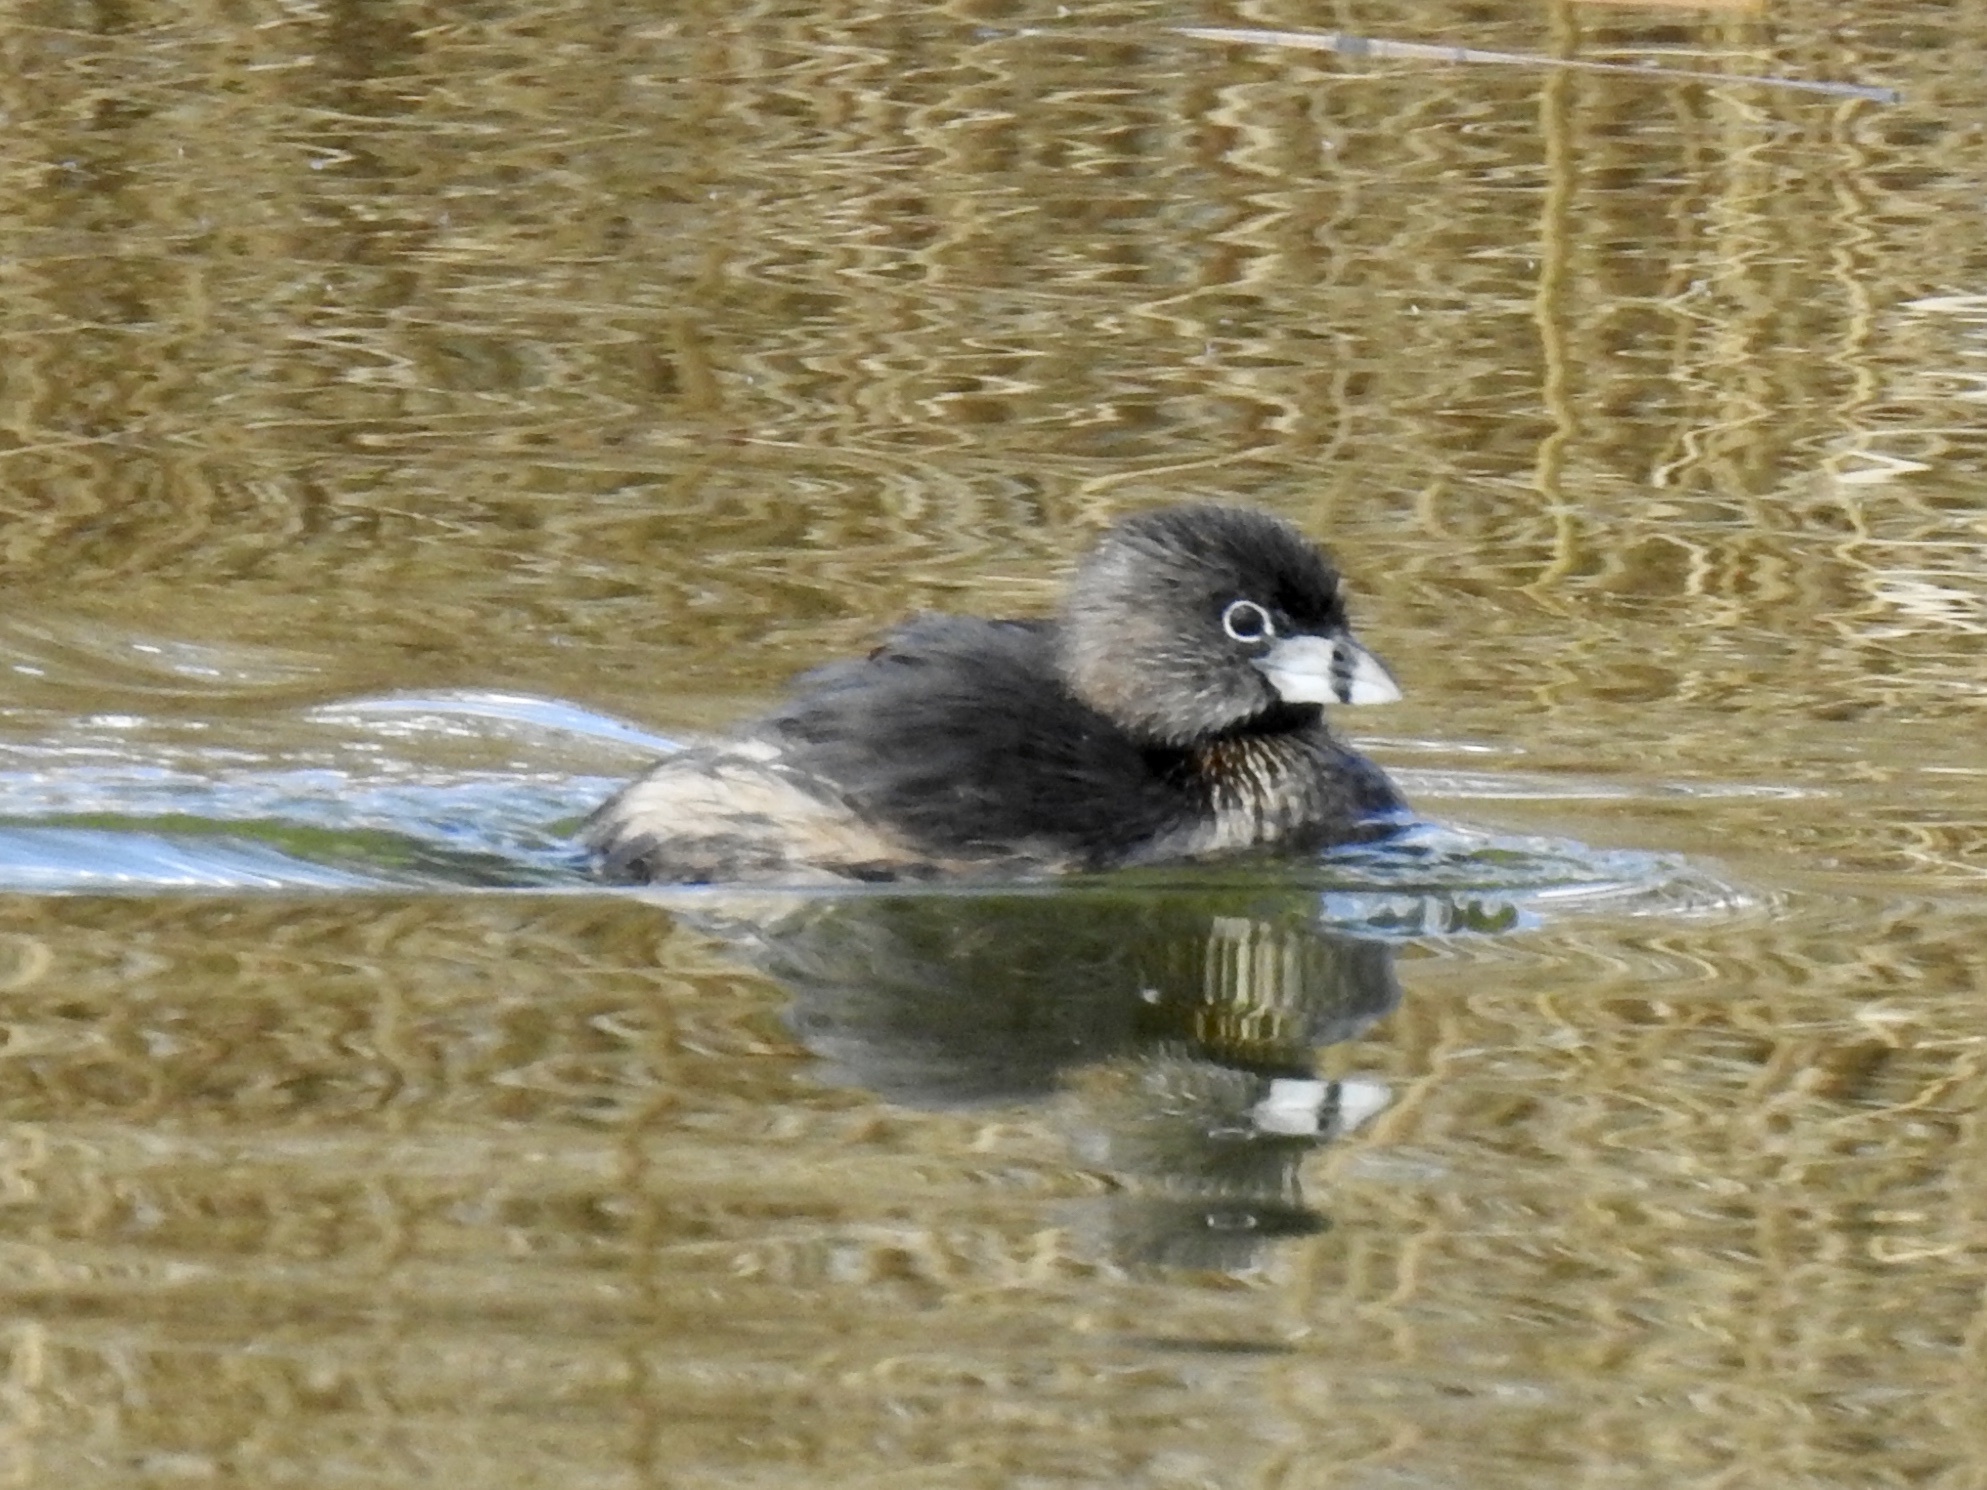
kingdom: Animalia
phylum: Chordata
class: Aves
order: Podicipediformes
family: Podicipedidae
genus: Podilymbus
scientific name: Podilymbus podiceps
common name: Pied-billed grebe
